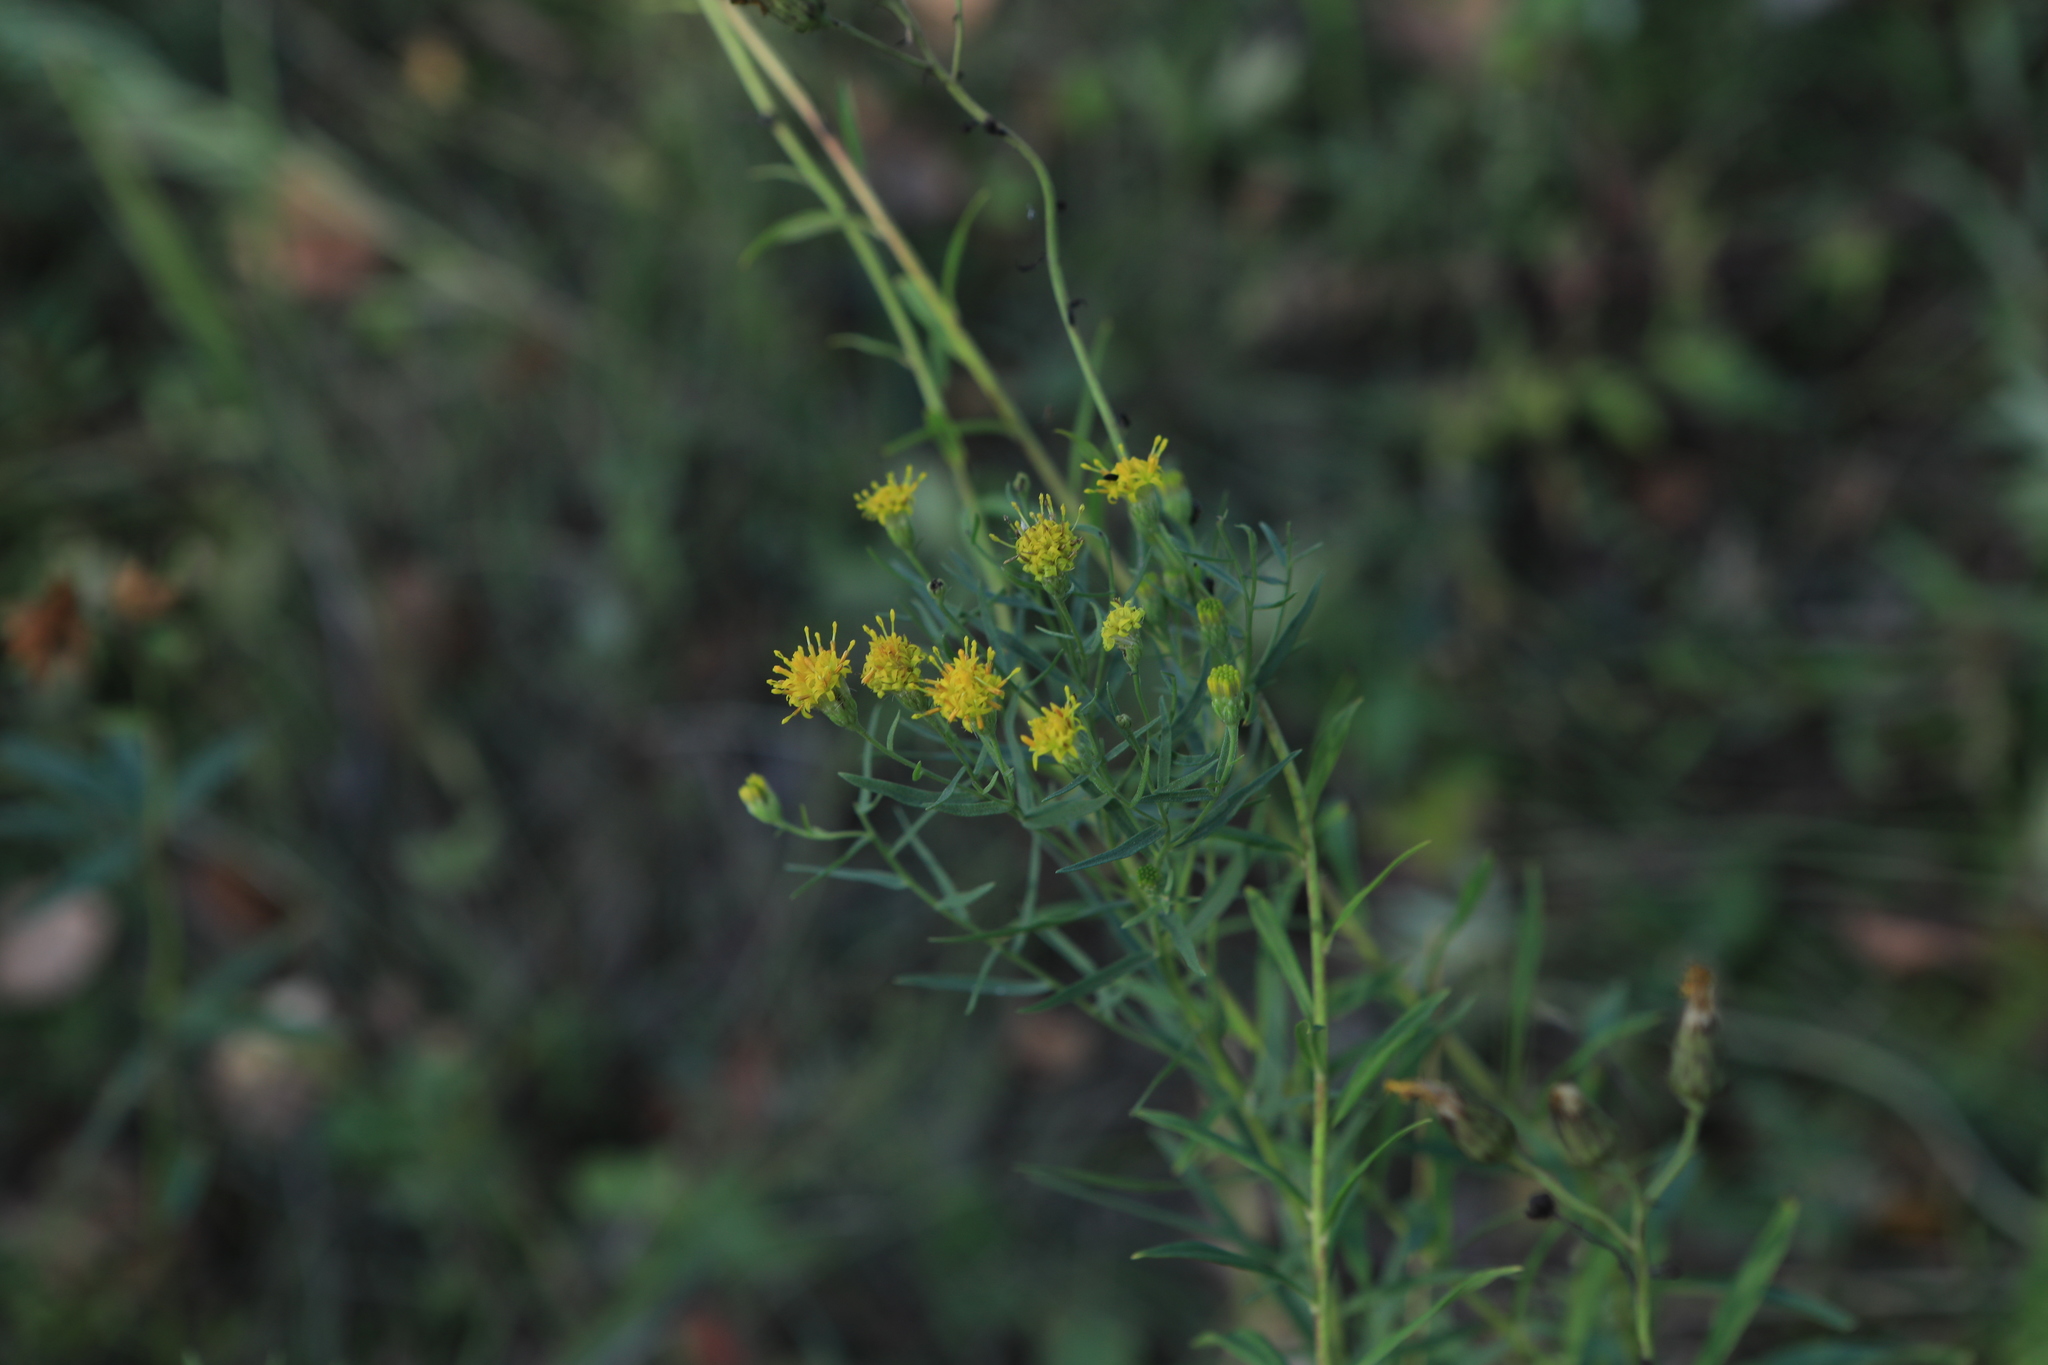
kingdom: Plantae
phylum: Tracheophyta
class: Magnoliopsida
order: Asterales
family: Asteraceae
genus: Galatella
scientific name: Galatella biflora
